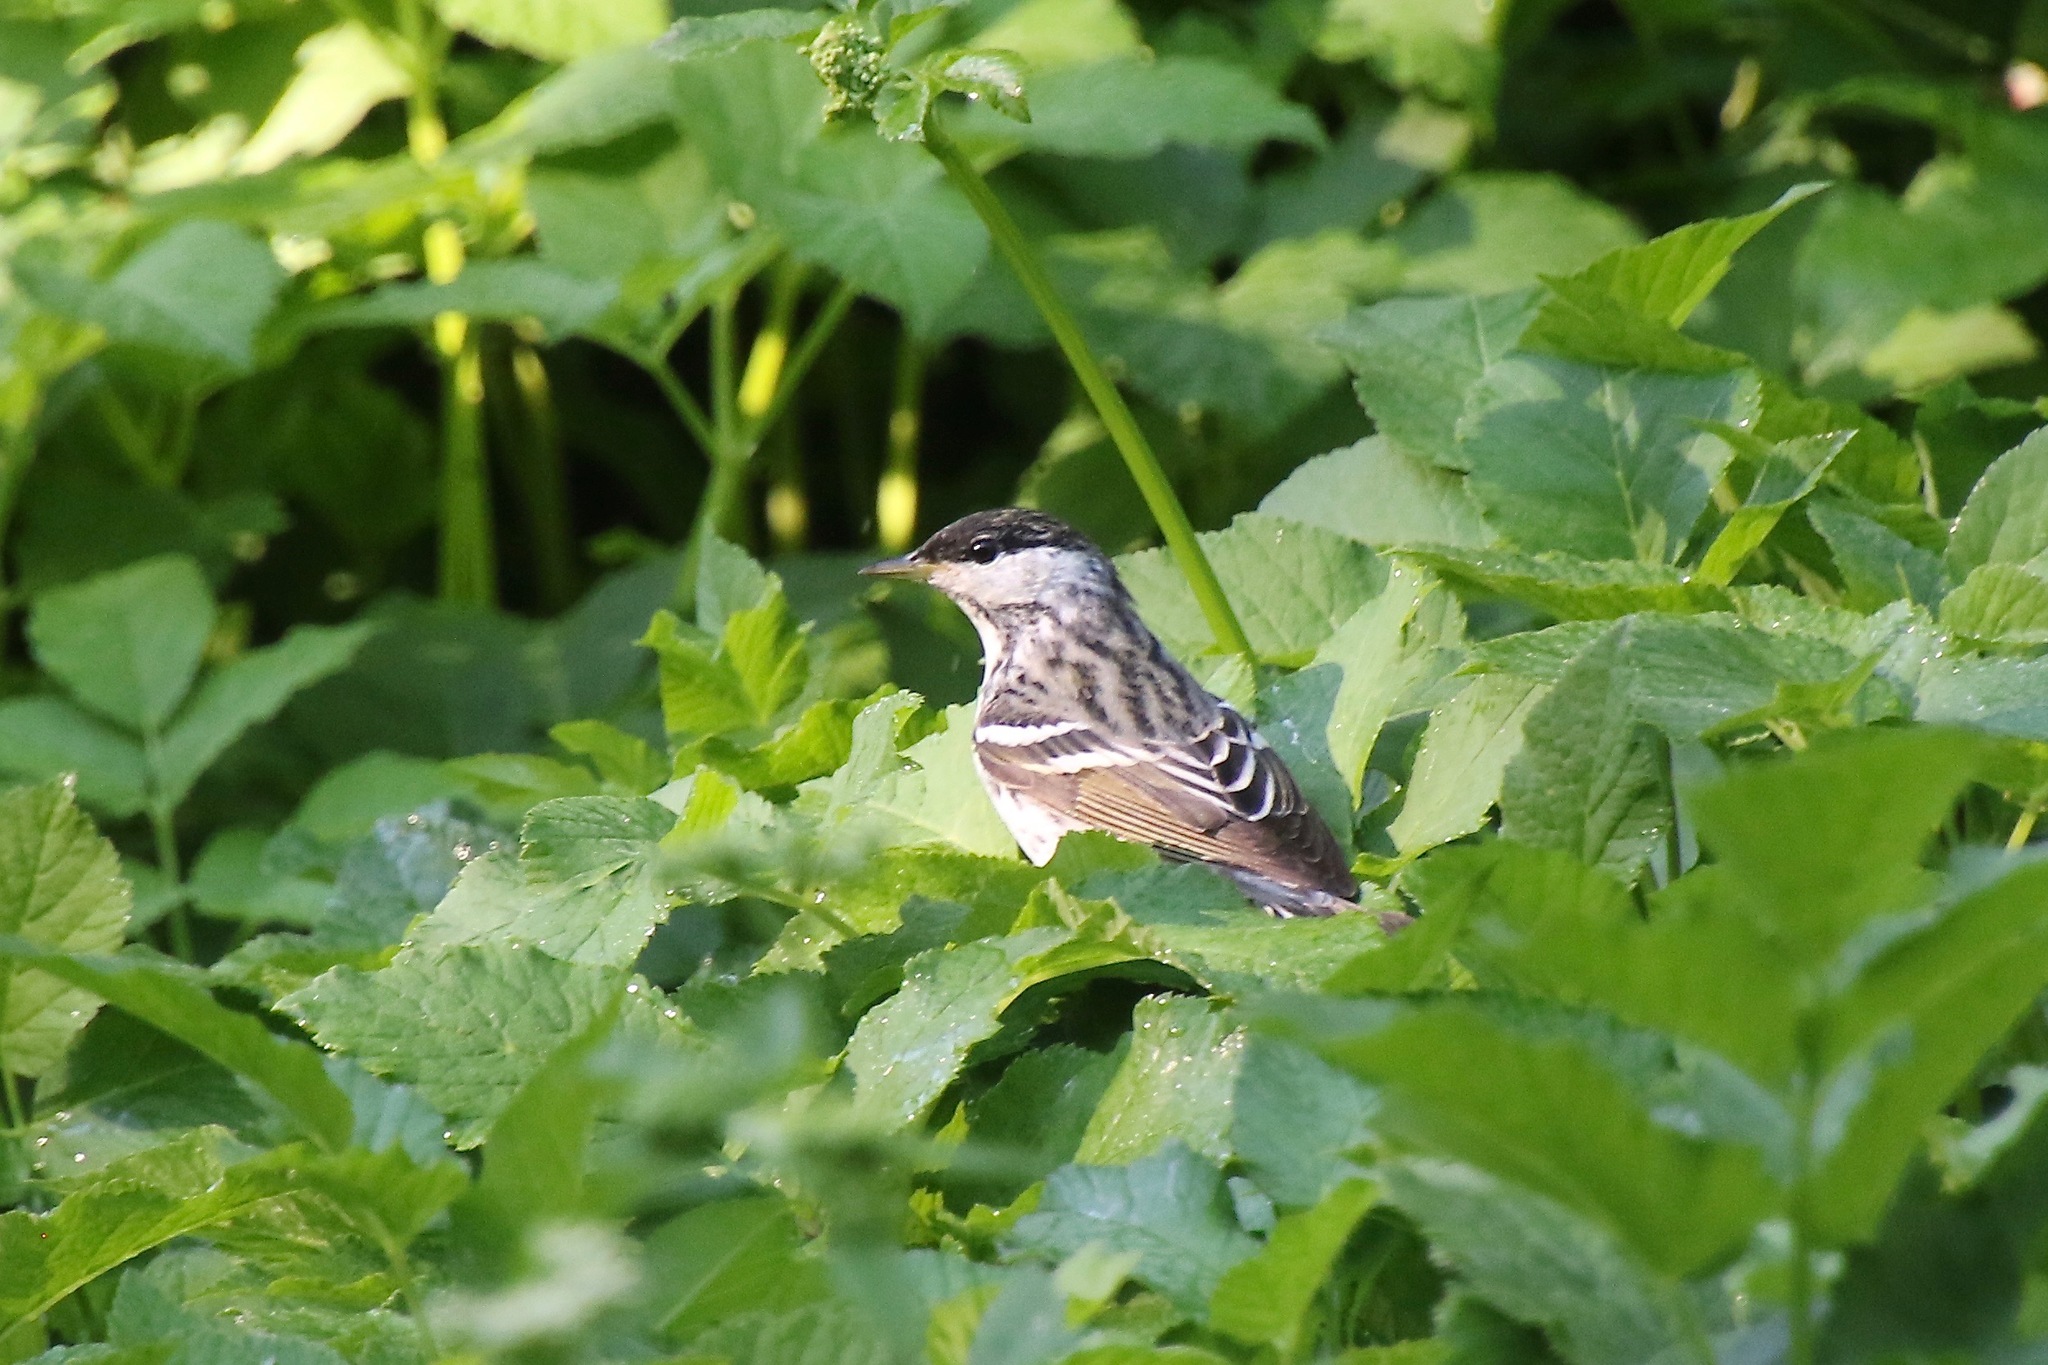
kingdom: Animalia
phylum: Chordata
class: Aves
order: Passeriformes
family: Parulidae
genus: Setophaga
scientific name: Setophaga striata
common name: Blackpoll warbler
